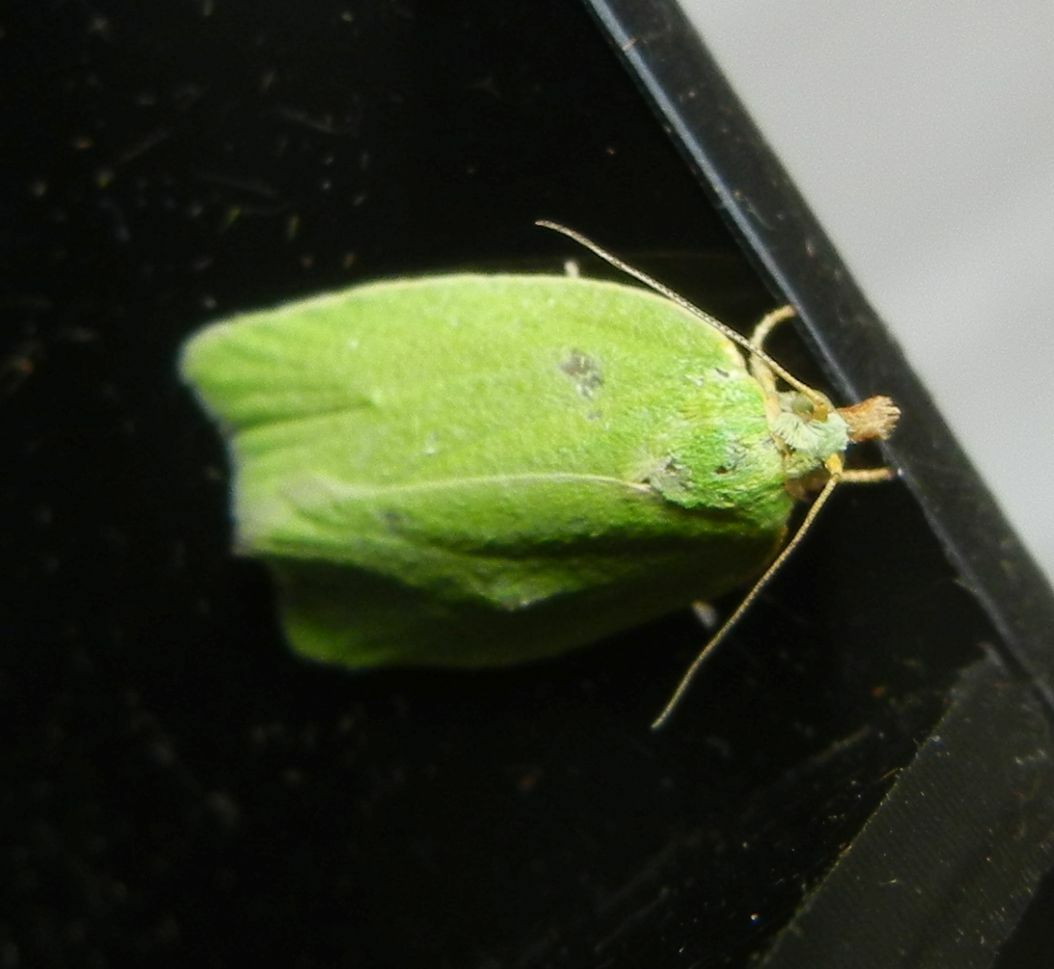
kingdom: Animalia
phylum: Arthropoda
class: Insecta
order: Lepidoptera
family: Tortricidae
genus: Tortrix
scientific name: Tortrix viridana
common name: Green oak tortrix
